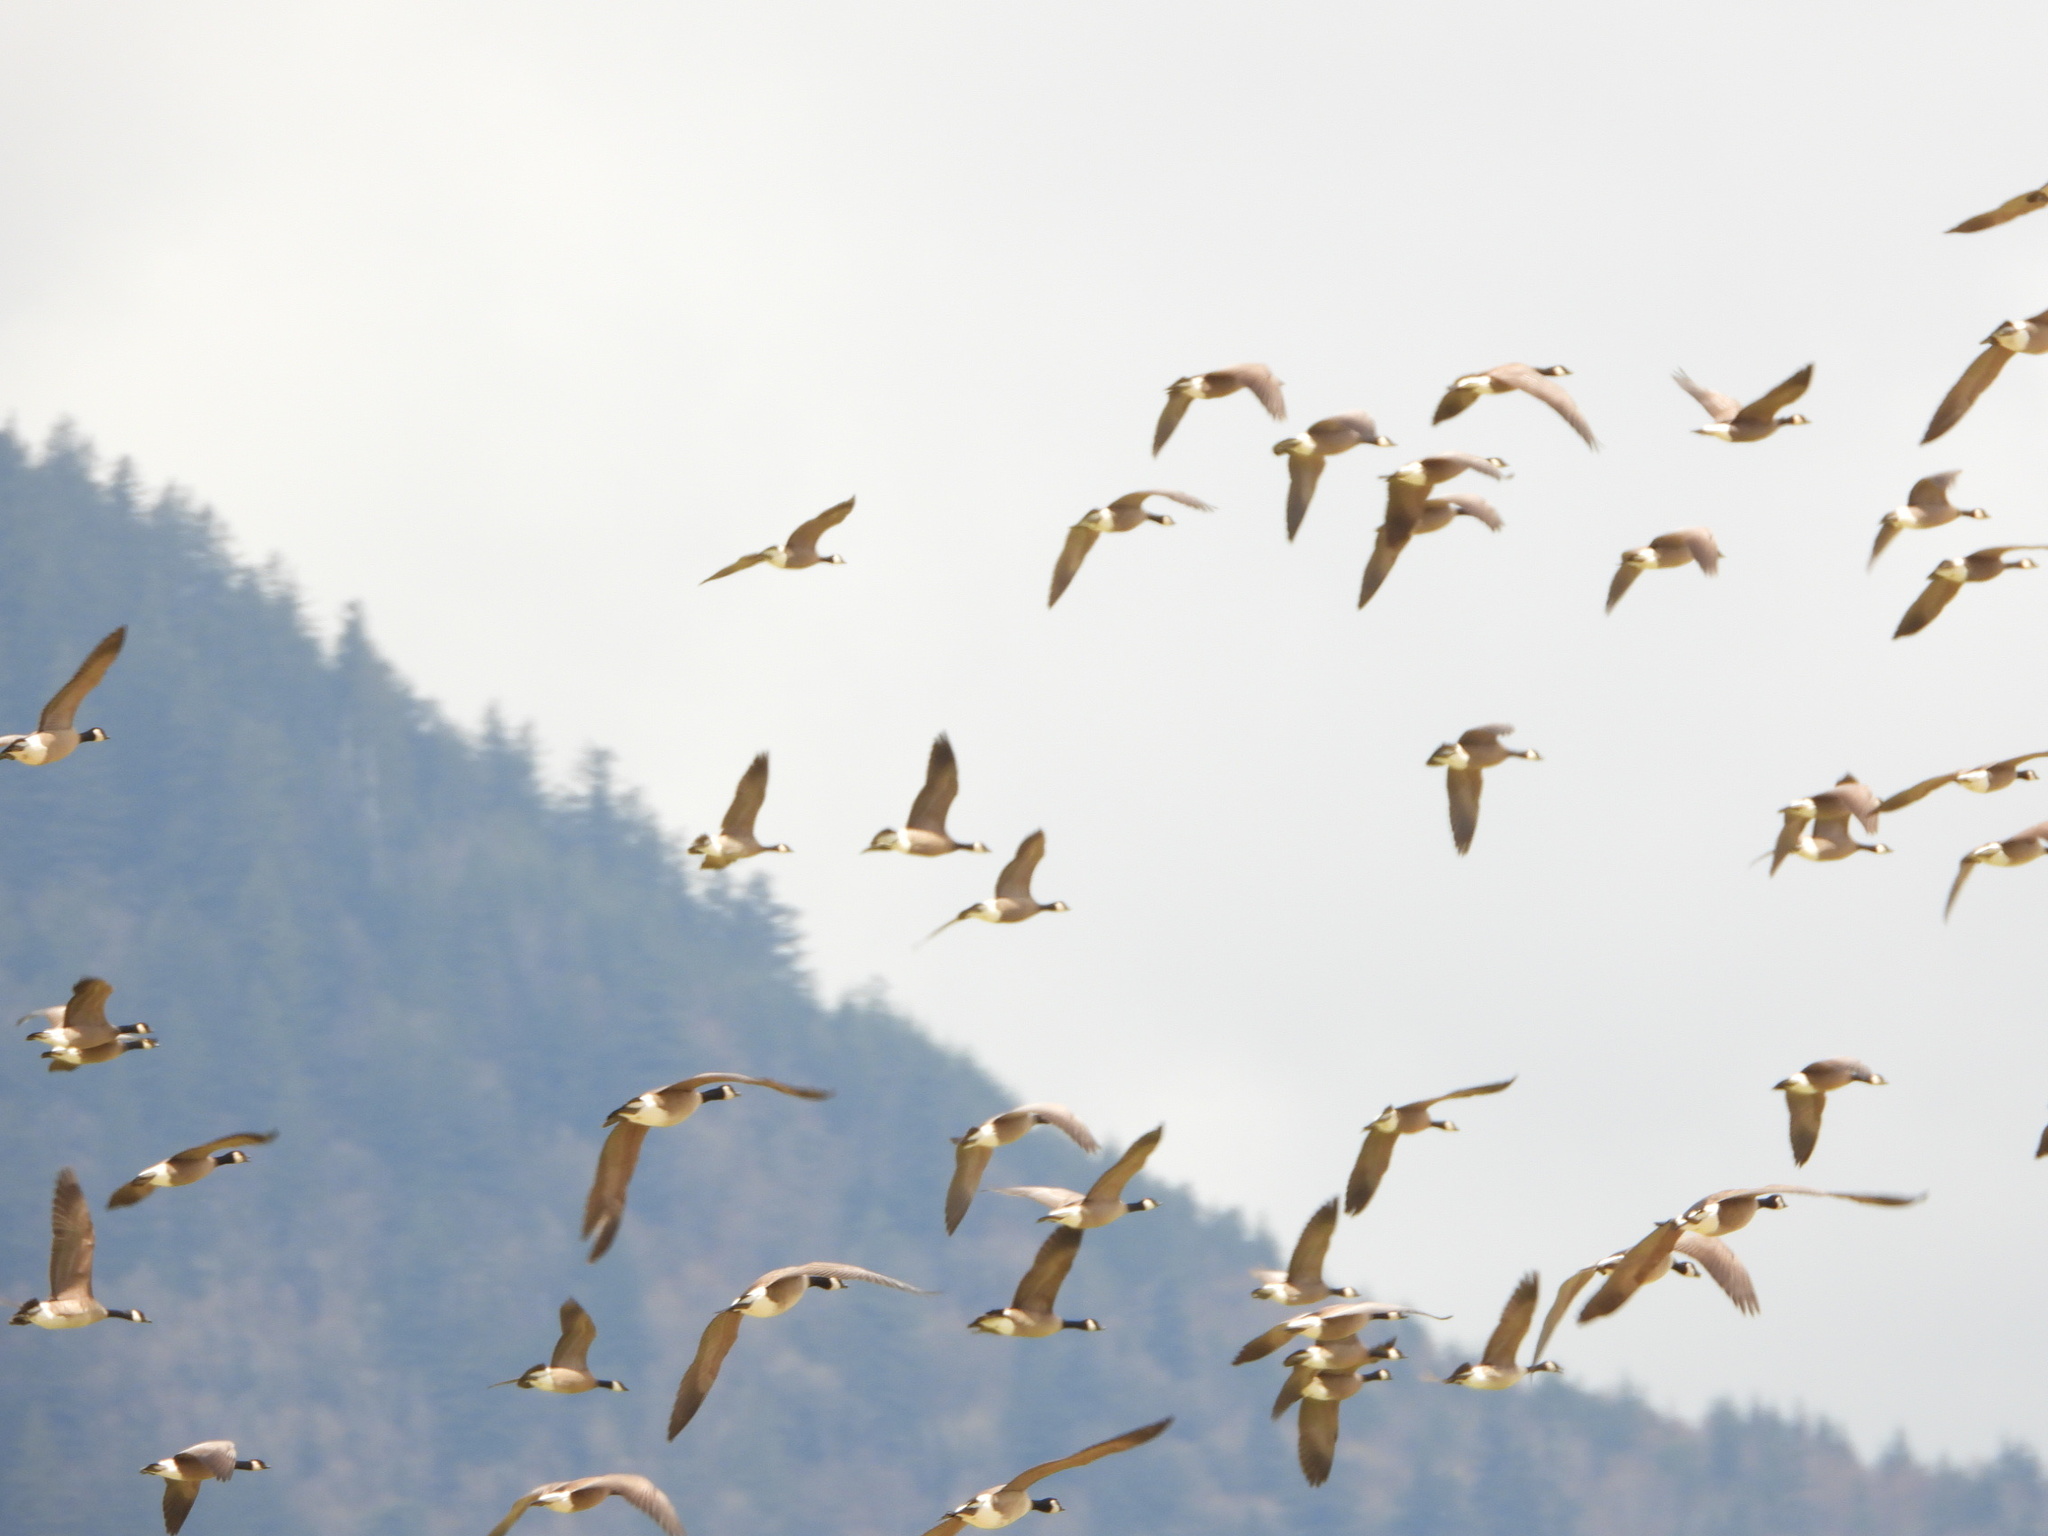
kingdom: Animalia
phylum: Chordata
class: Aves
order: Anseriformes
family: Anatidae
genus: Branta
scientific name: Branta hutchinsii
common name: Cackling goose
